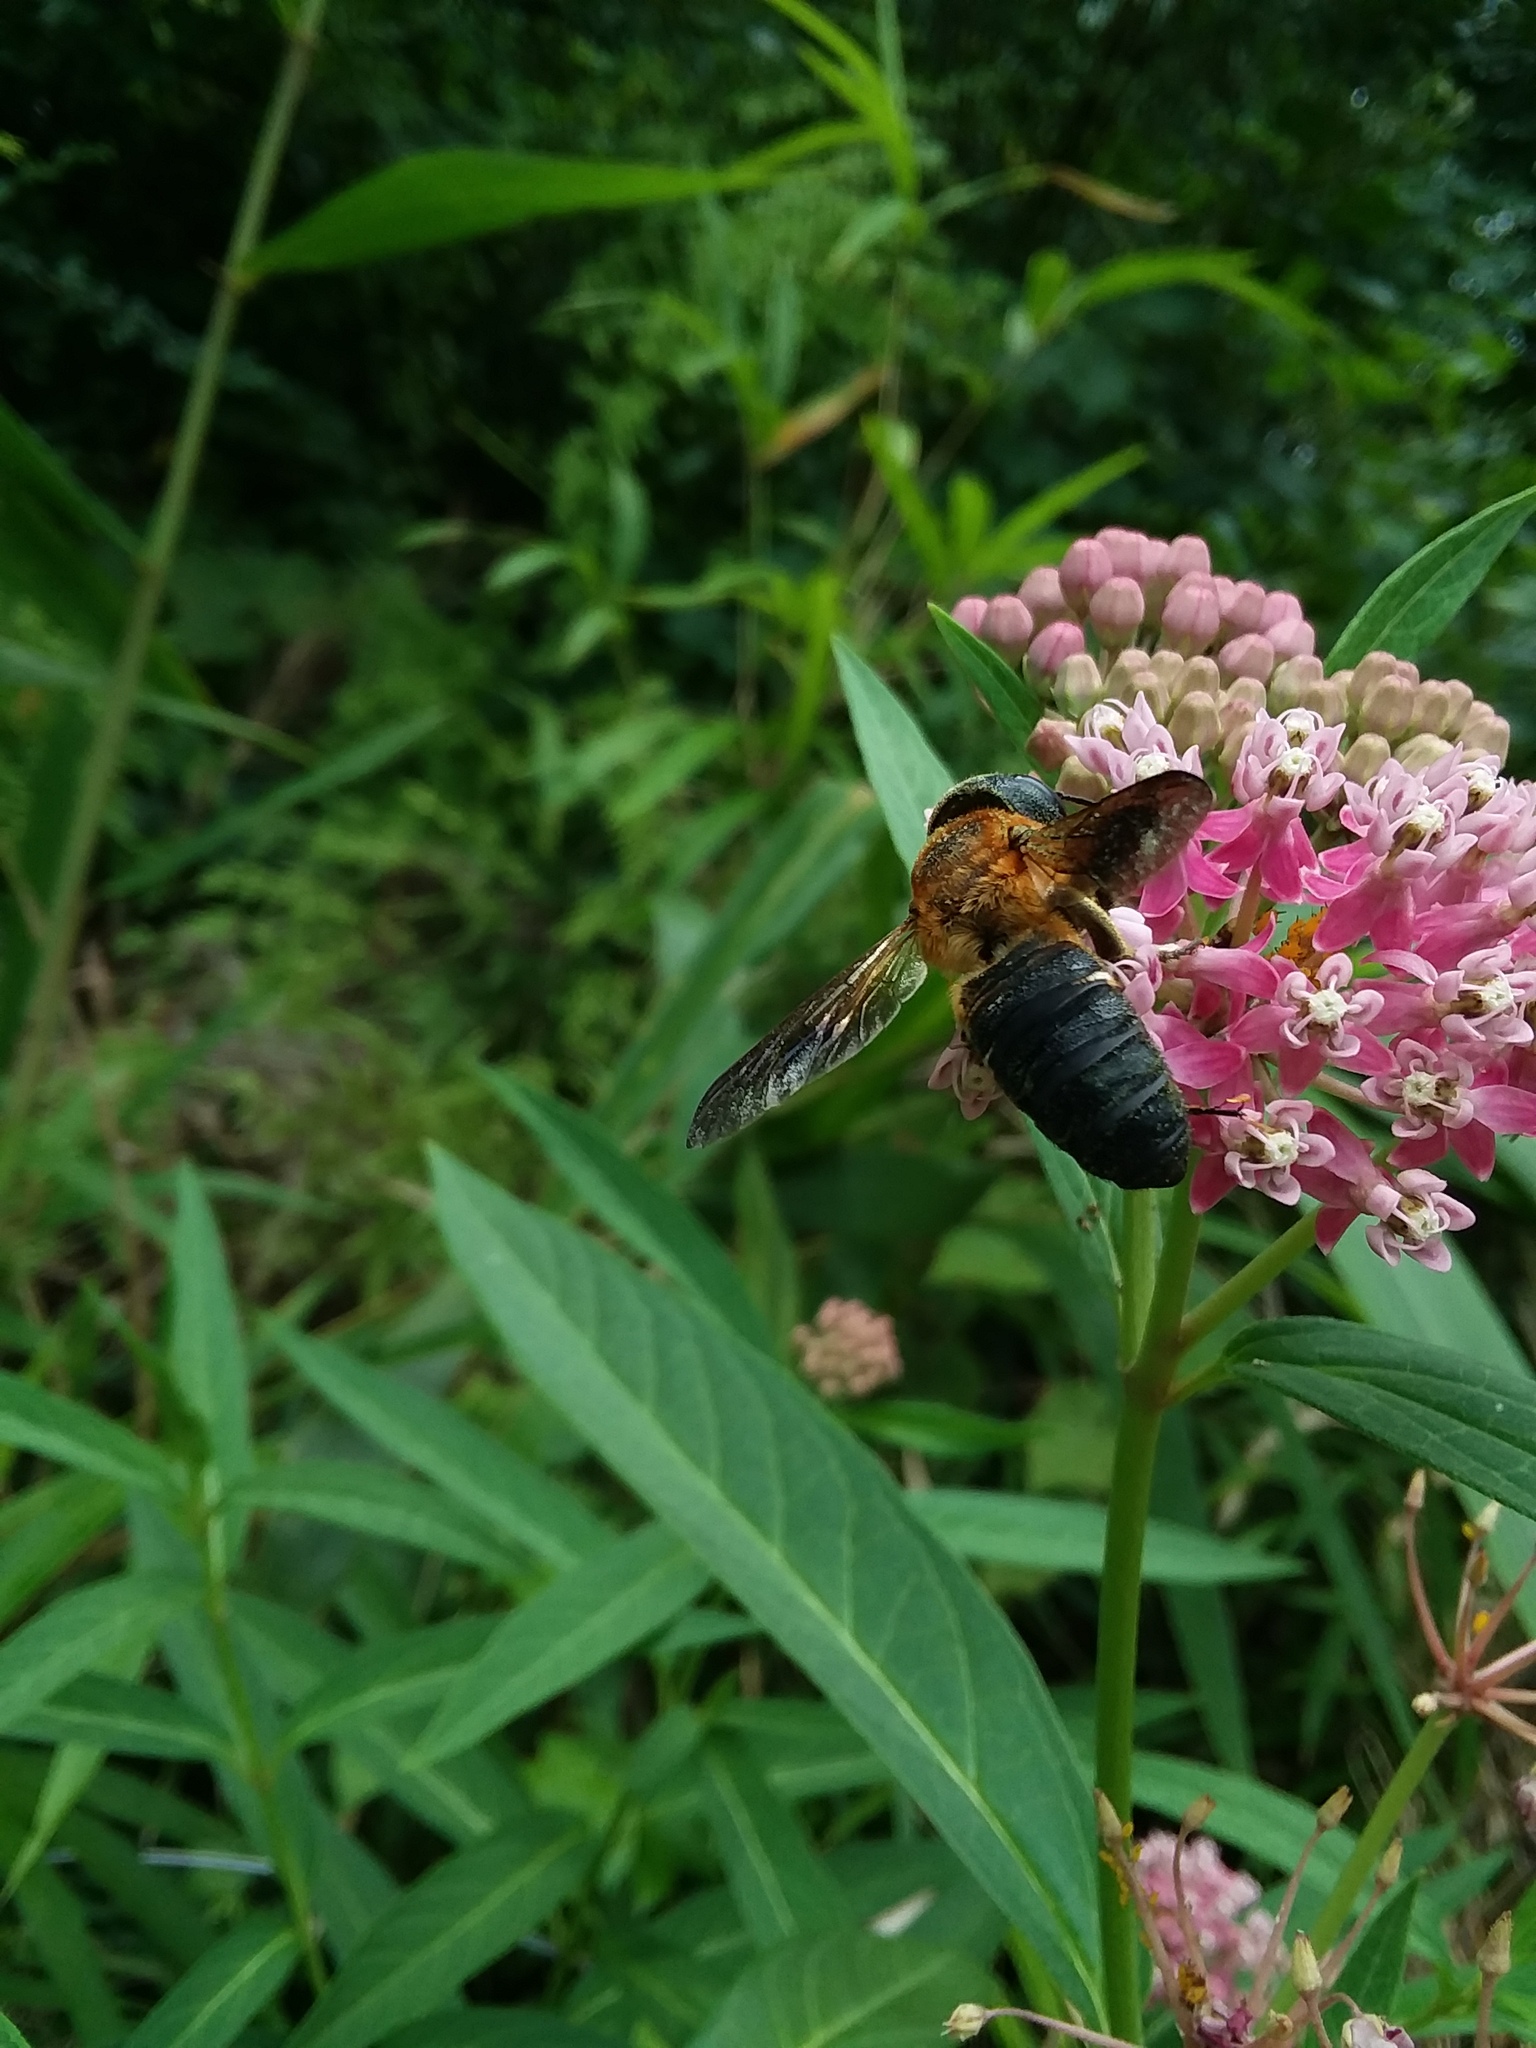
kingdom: Animalia
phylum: Arthropoda
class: Insecta
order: Hymenoptera
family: Megachilidae
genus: Megachile
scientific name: Megachile sculpturalis
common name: Sculptured resin bee
